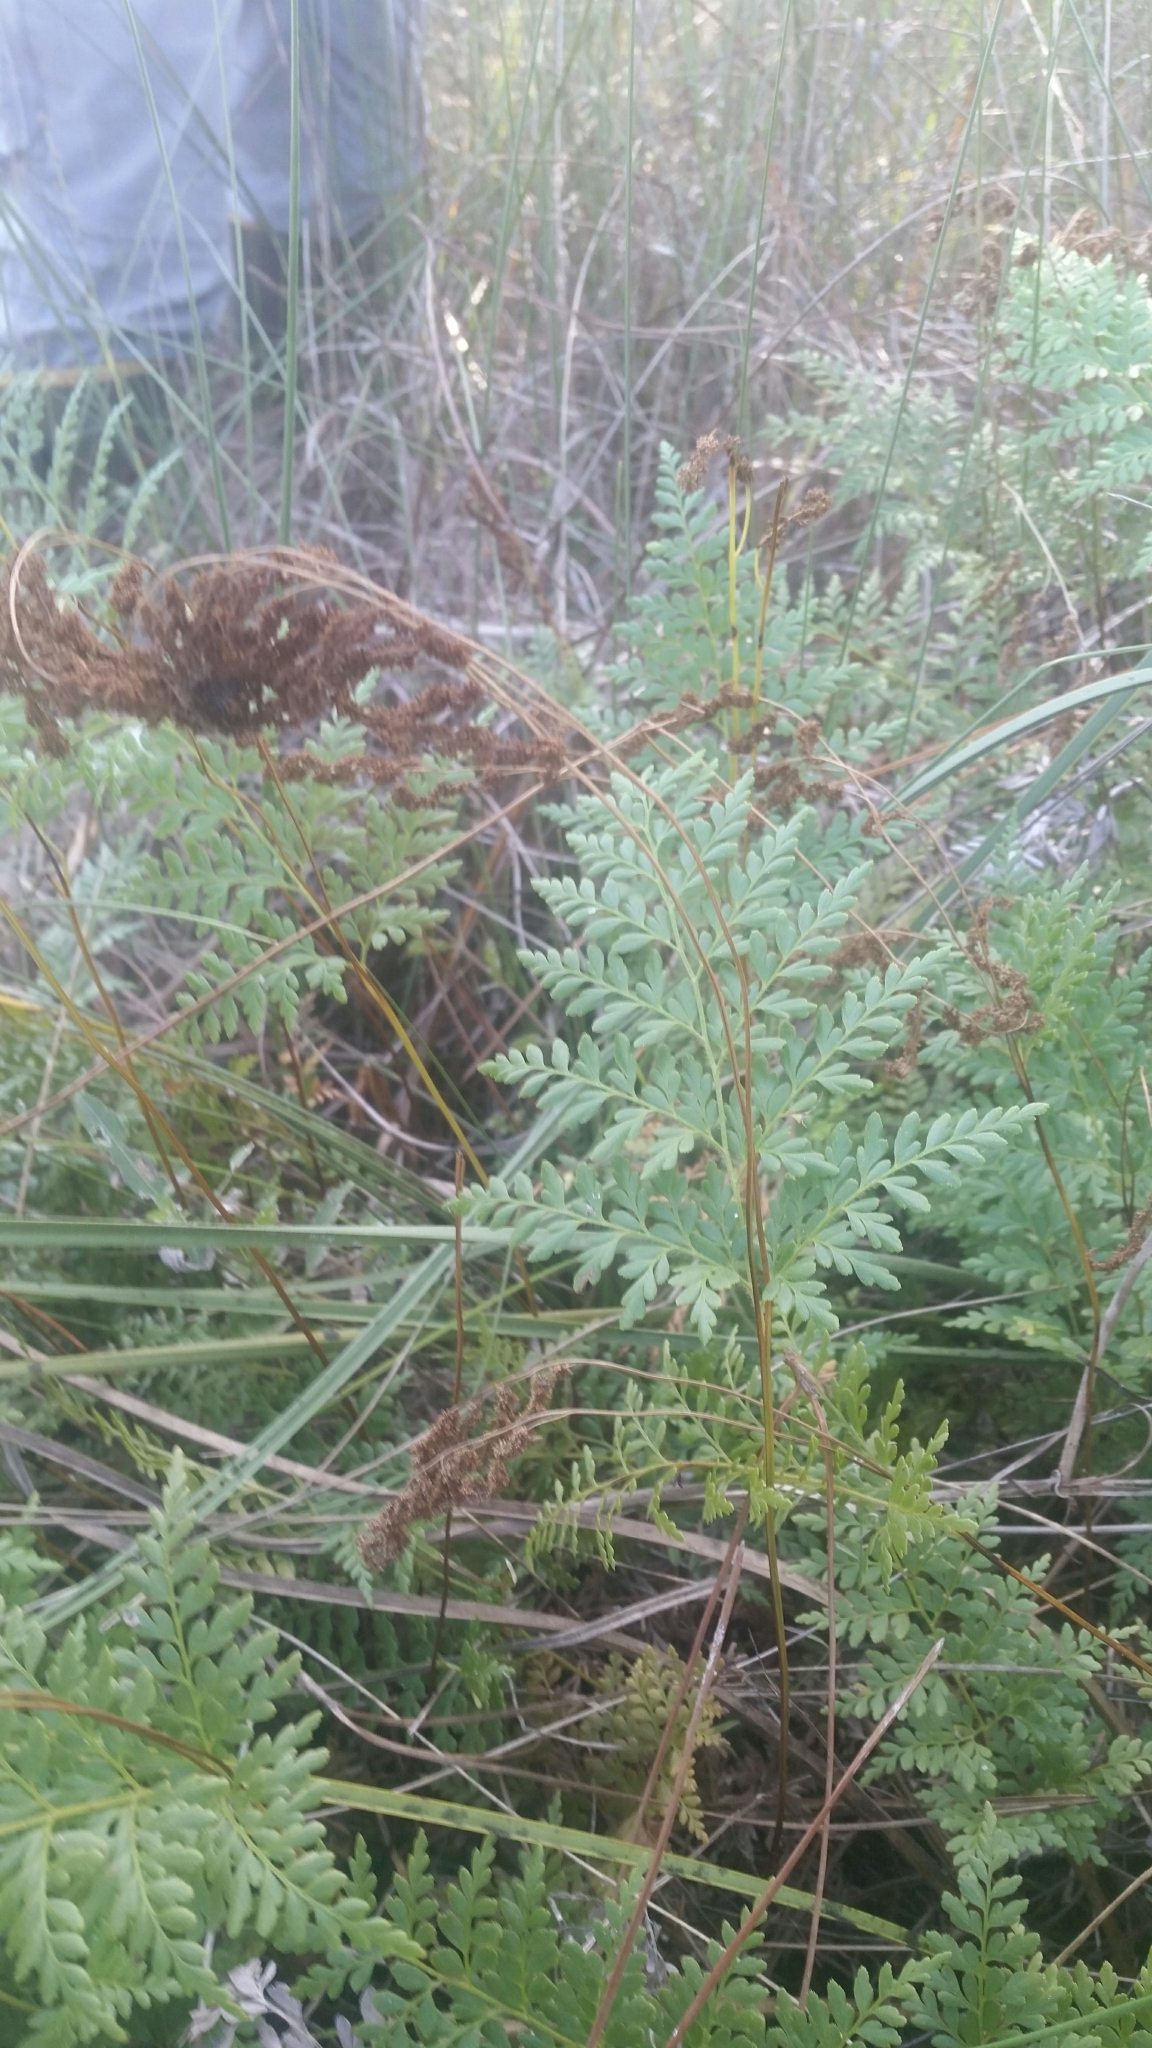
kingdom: Plantae
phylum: Tracheophyta
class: Polypodiopsida
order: Schizaeales
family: Anemiaceae
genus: Anemia
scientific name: Anemia adiantifolia
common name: Pine fern
